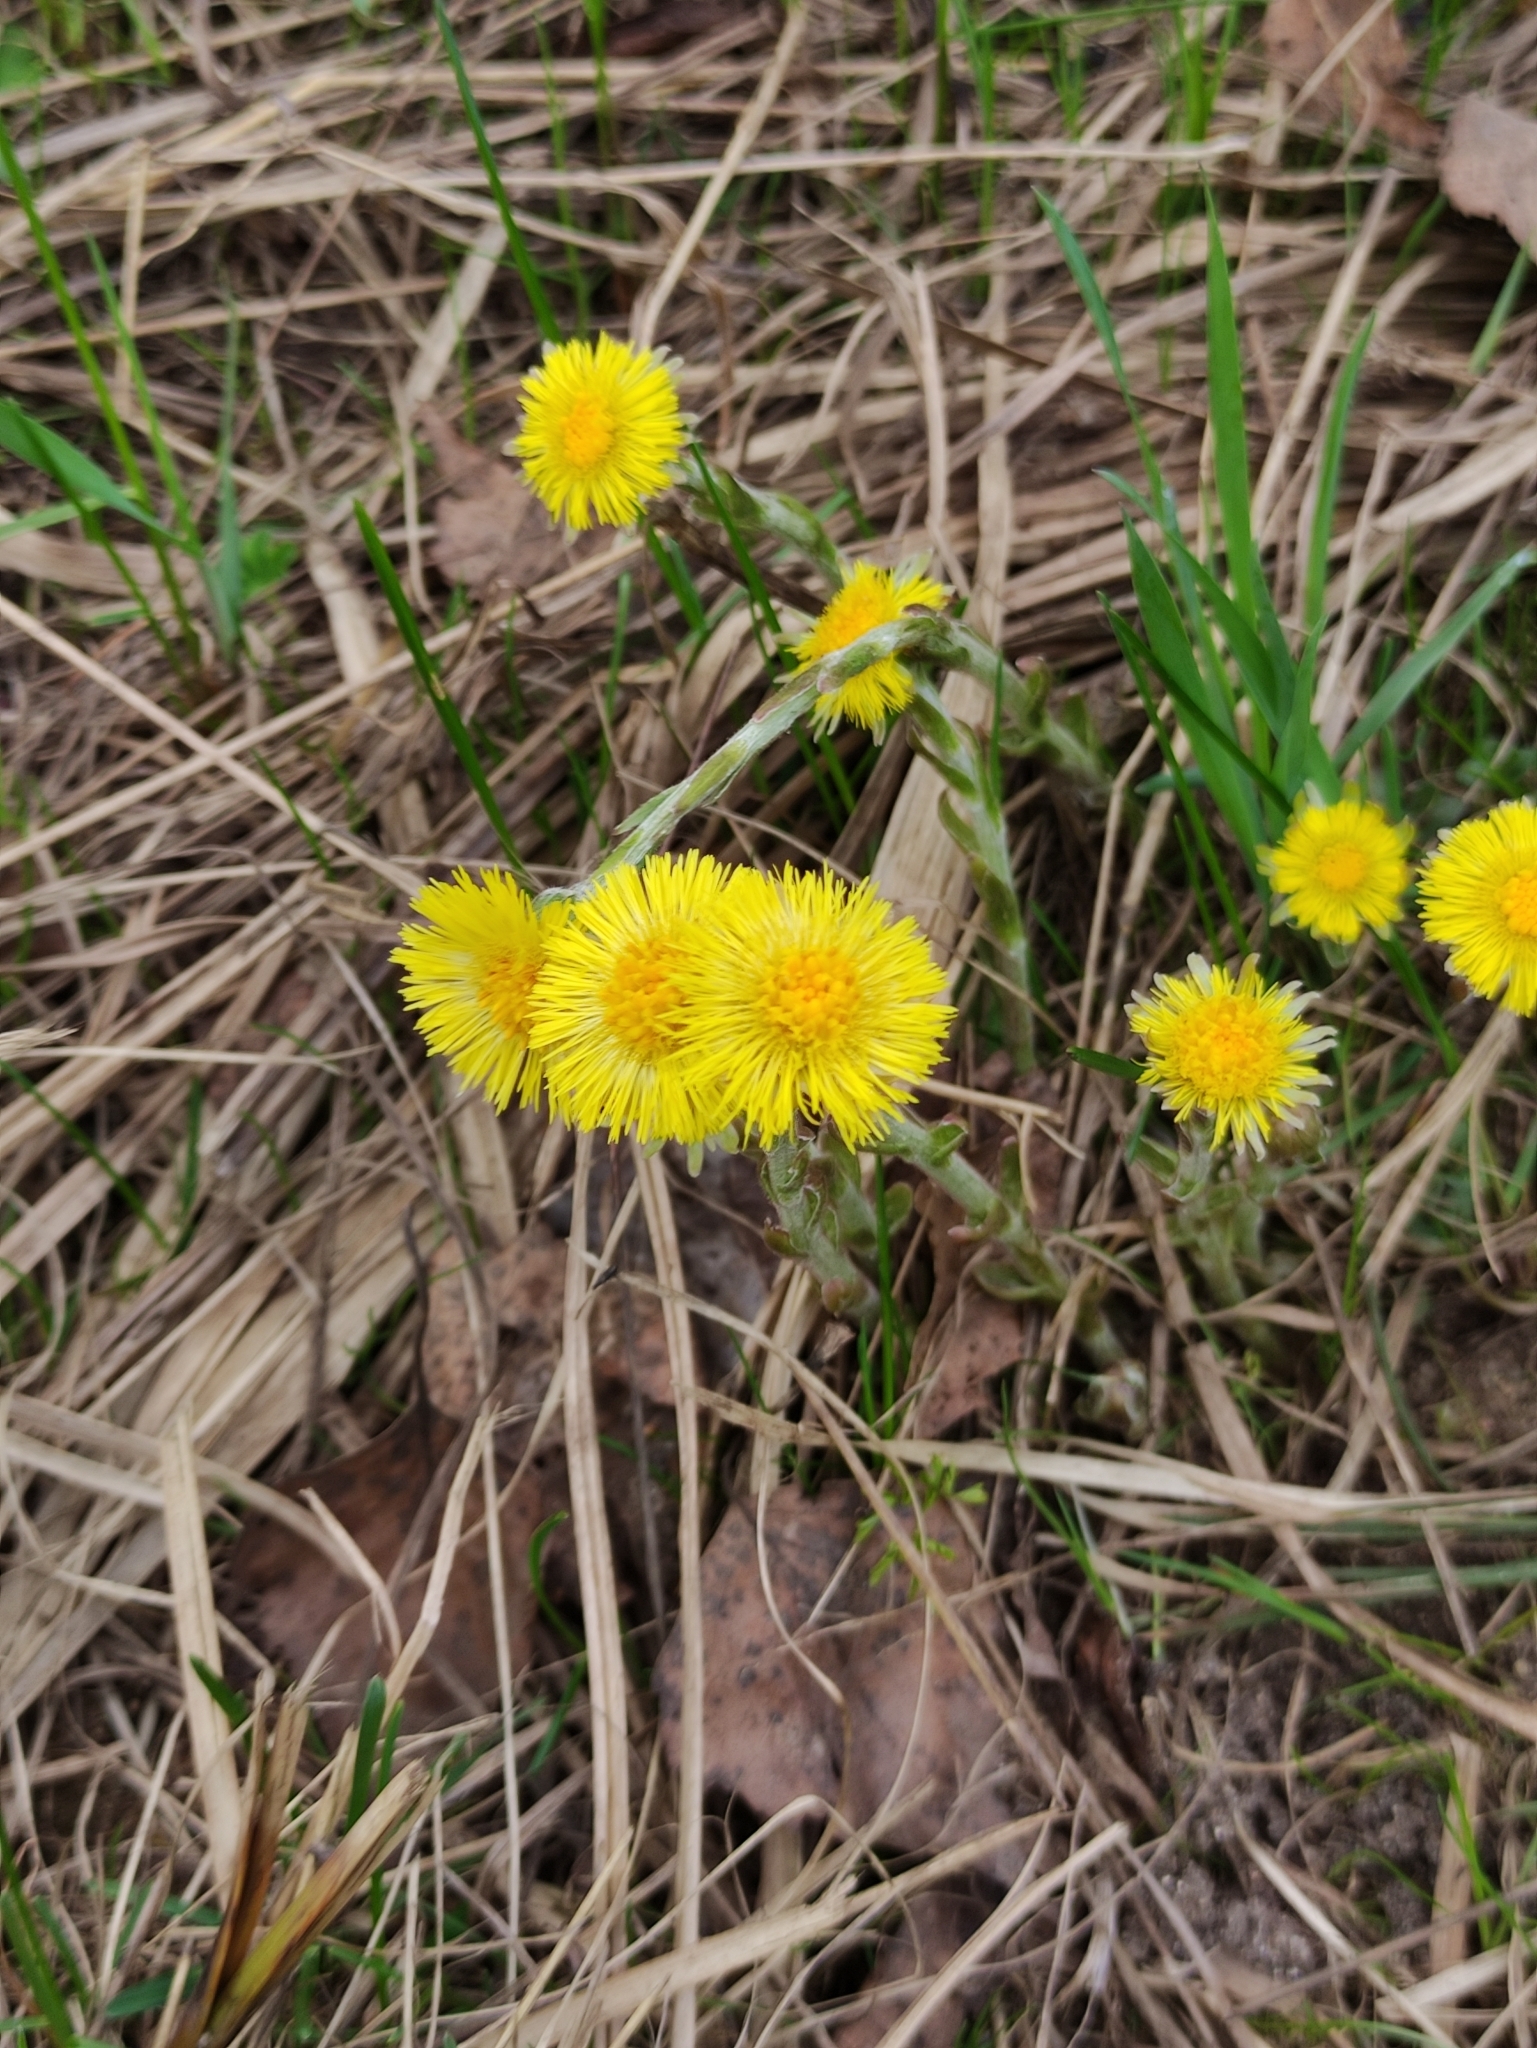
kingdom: Plantae
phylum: Tracheophyta
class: Magnoliopsida
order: Asterales
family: Asteraceae
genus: Tussilago
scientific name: Tussilago farfara
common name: Coltsfoot
